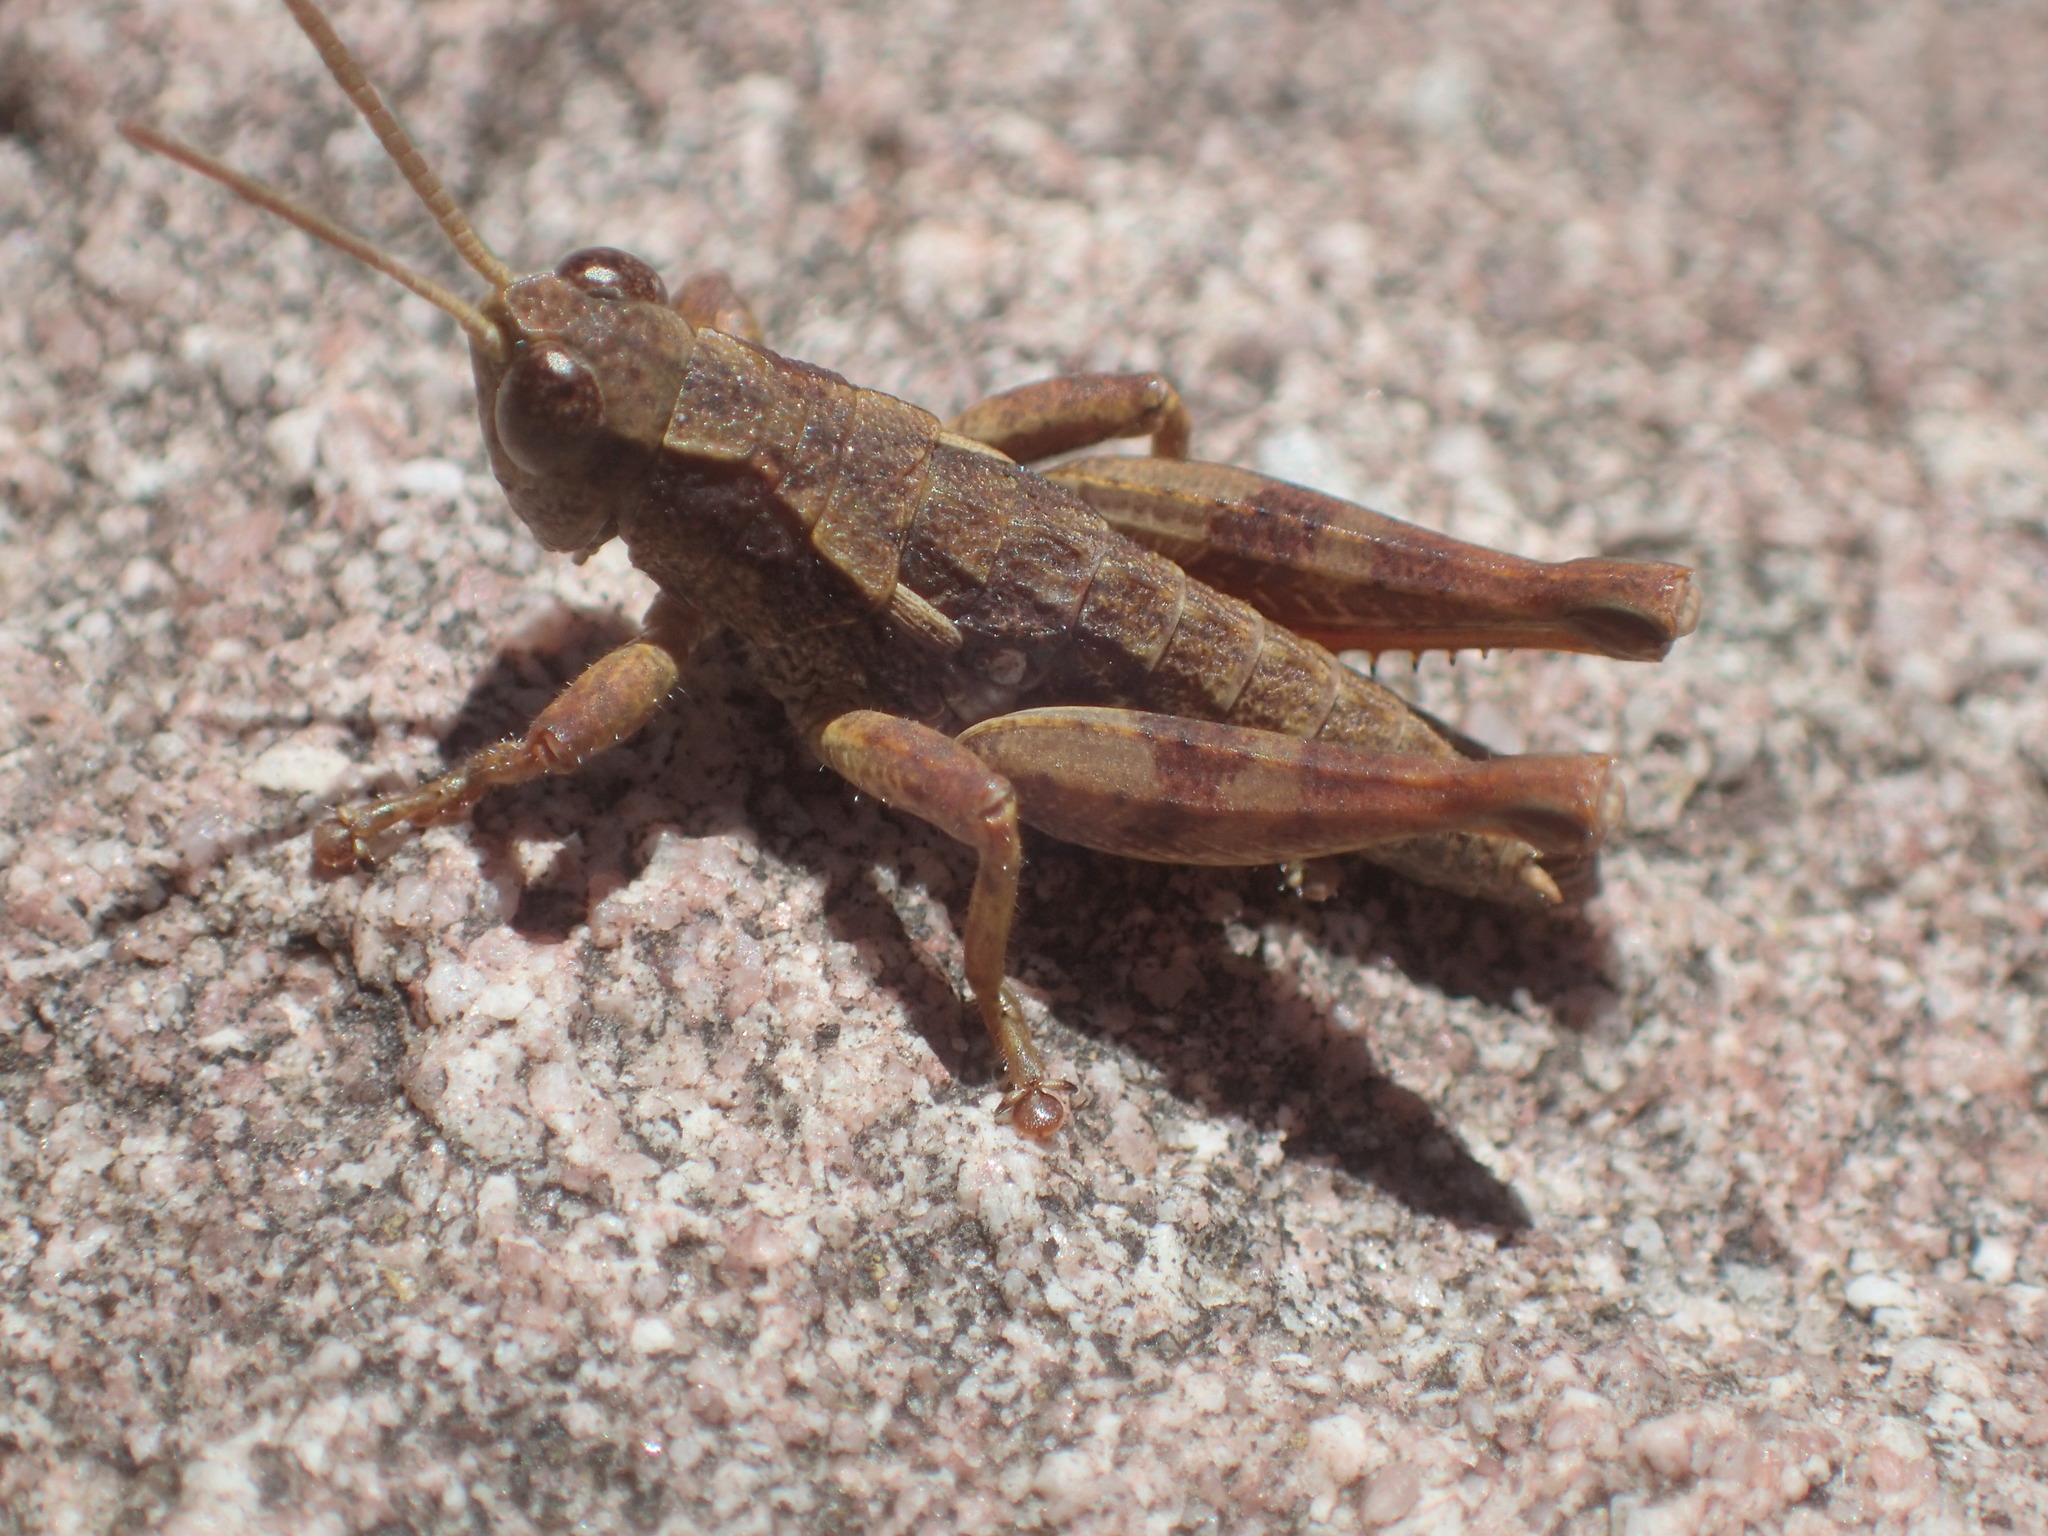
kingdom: Animalia
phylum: Arthropoda
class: Insecta
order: Orthoptera
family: Acrididae
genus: Tasmaniacris
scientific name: Tasmaniacris tasmaniensis
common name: Tasmanian grasshopper
